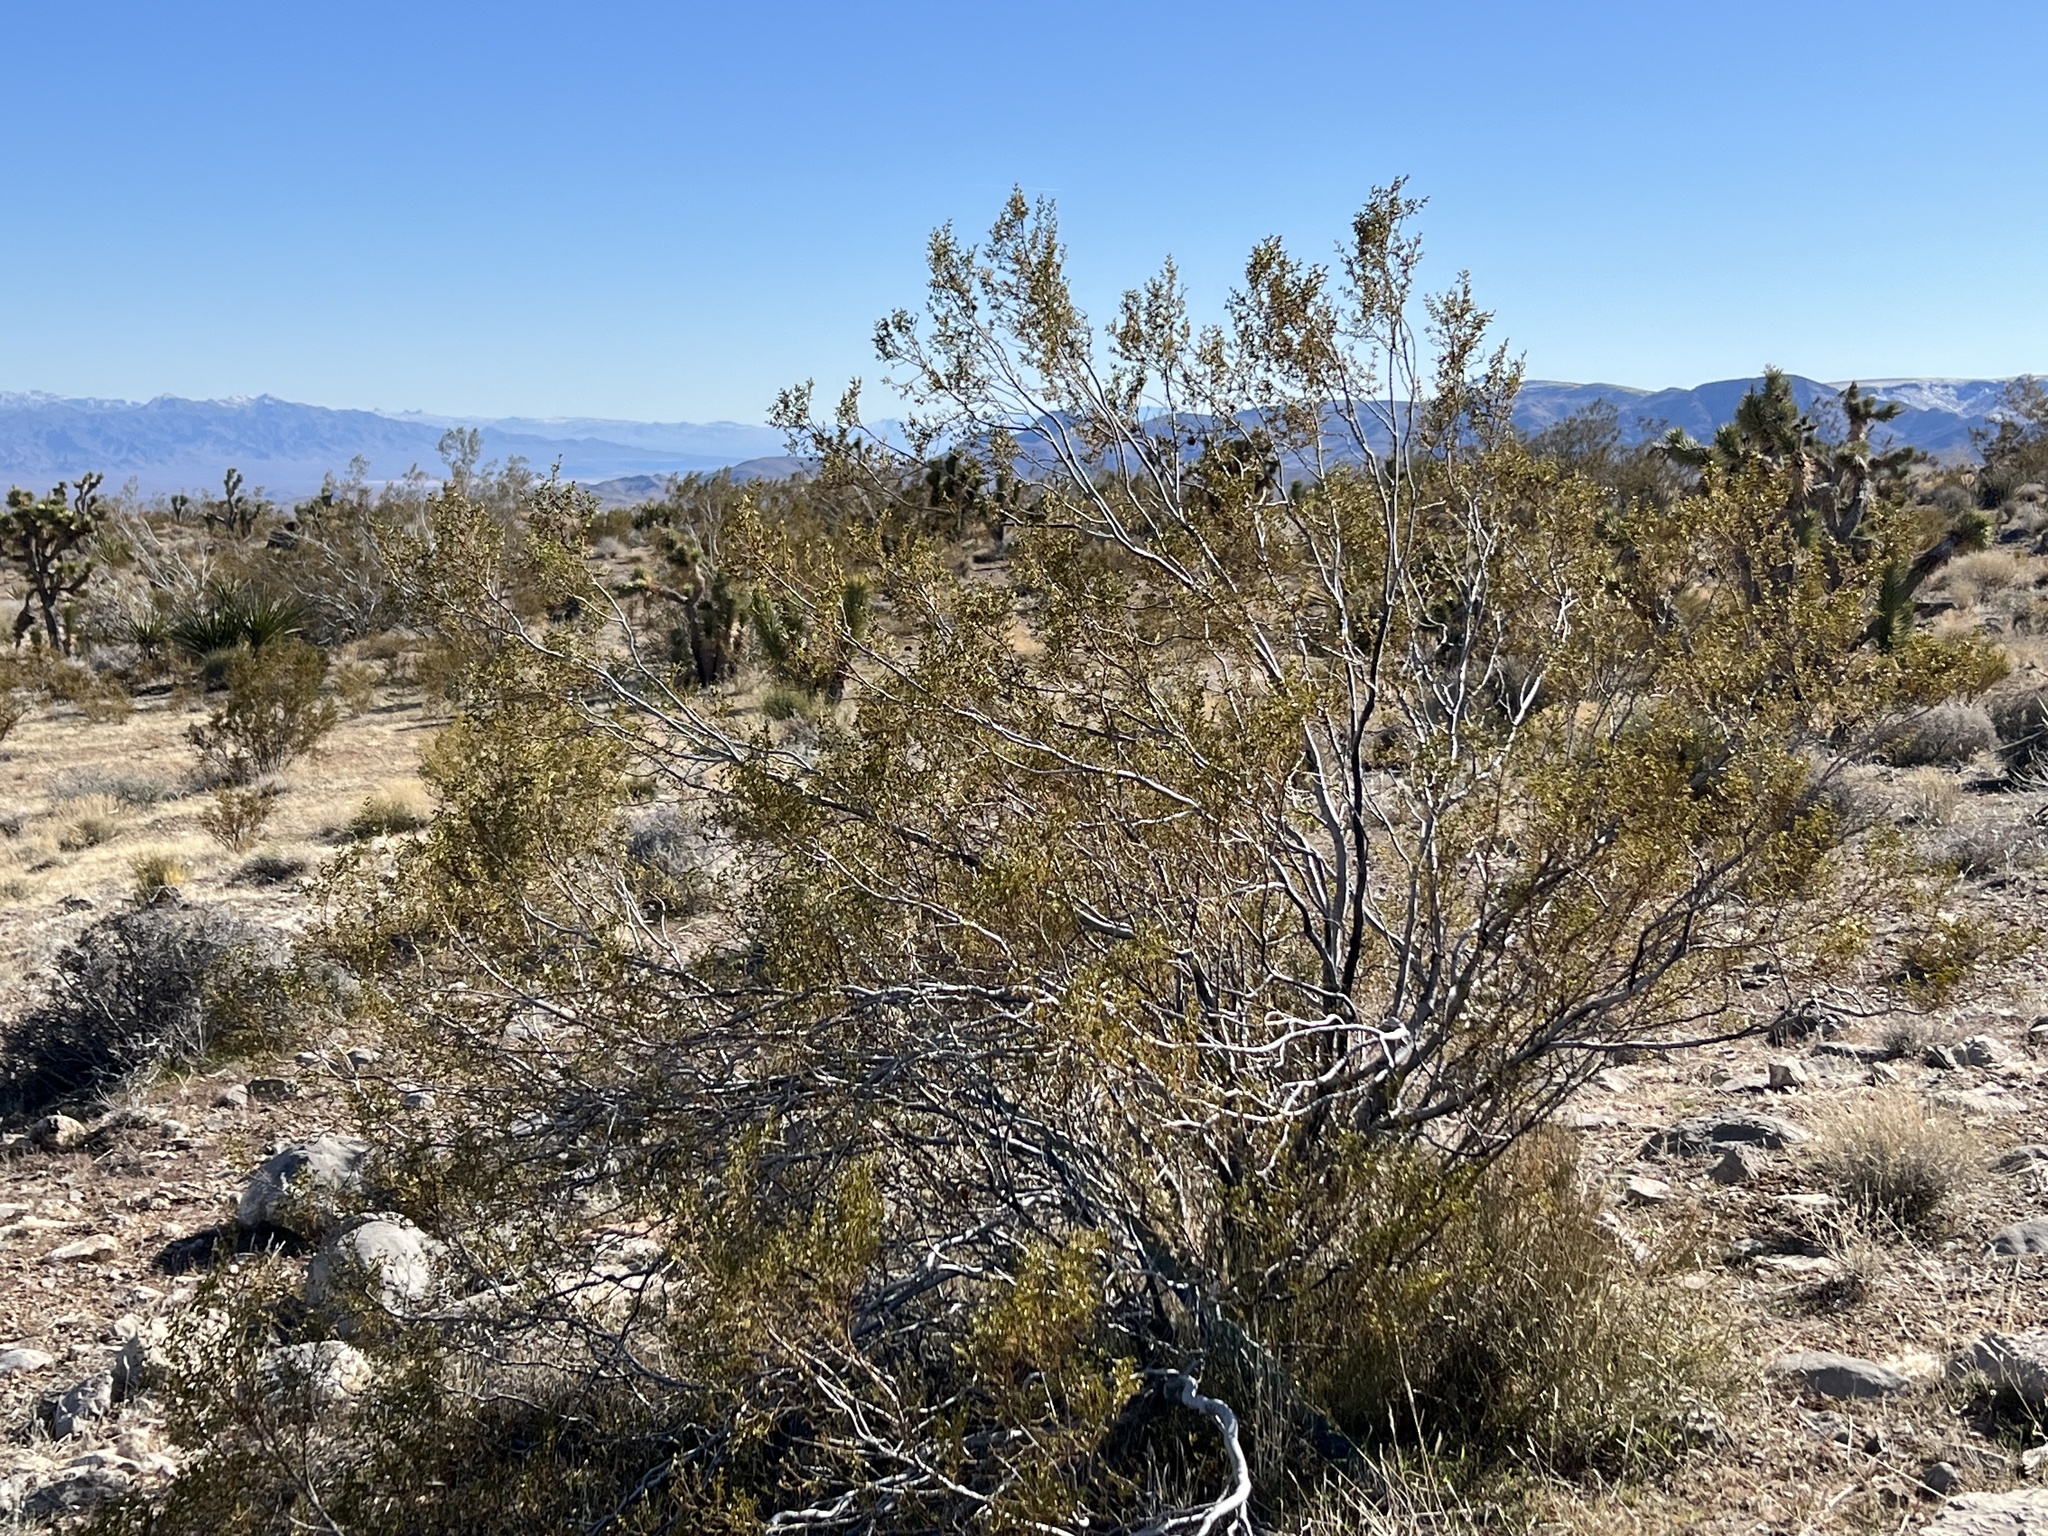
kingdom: Plantae
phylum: Tracheophyta
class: Magnoliopsida
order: Zygophyllales
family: Zygophyllaceae
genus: Larrea
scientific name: Larrea tridentata
